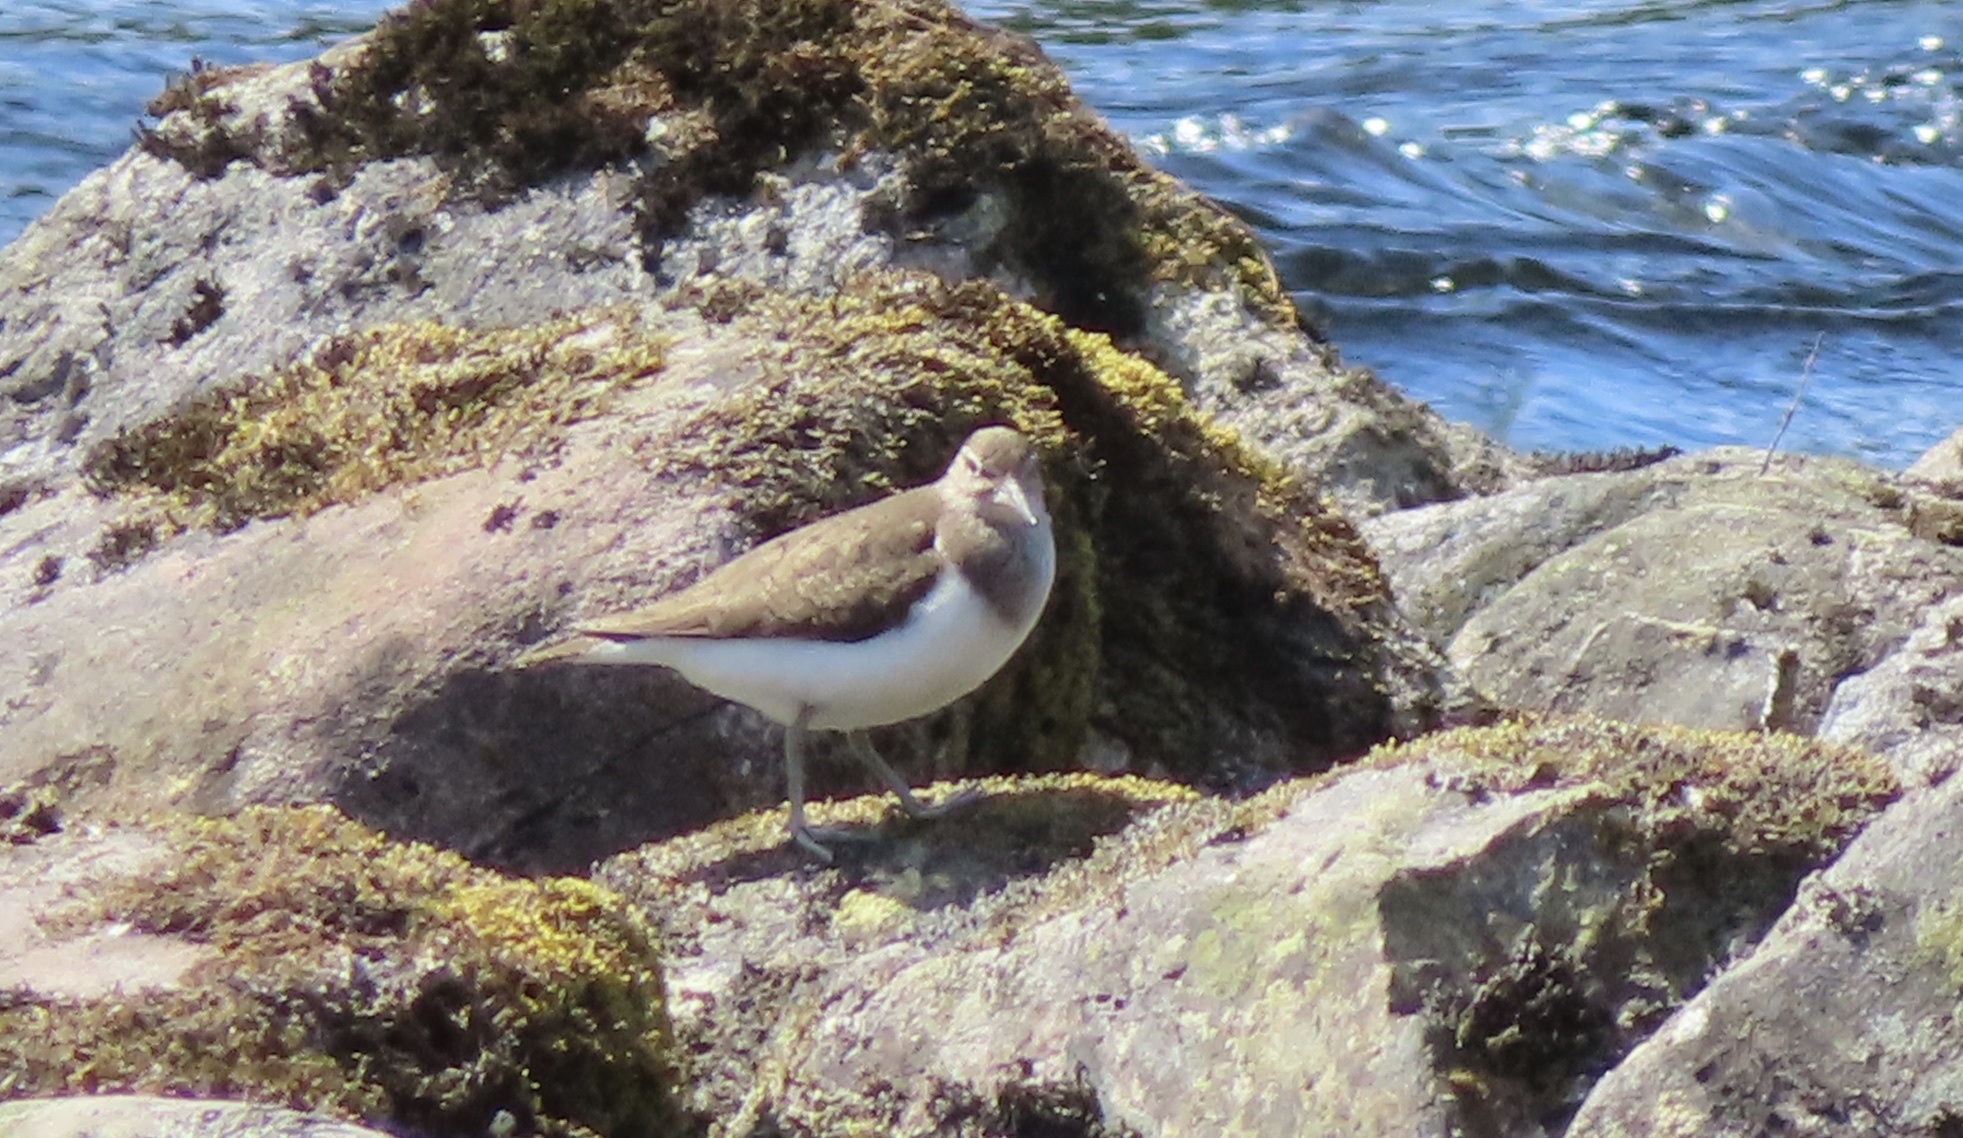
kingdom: Animalia
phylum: Chordata
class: Aves
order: Charadriiformes
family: Scolopacidae
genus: Actitis
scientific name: Actitis hypoleucos
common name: Common sandpiper
